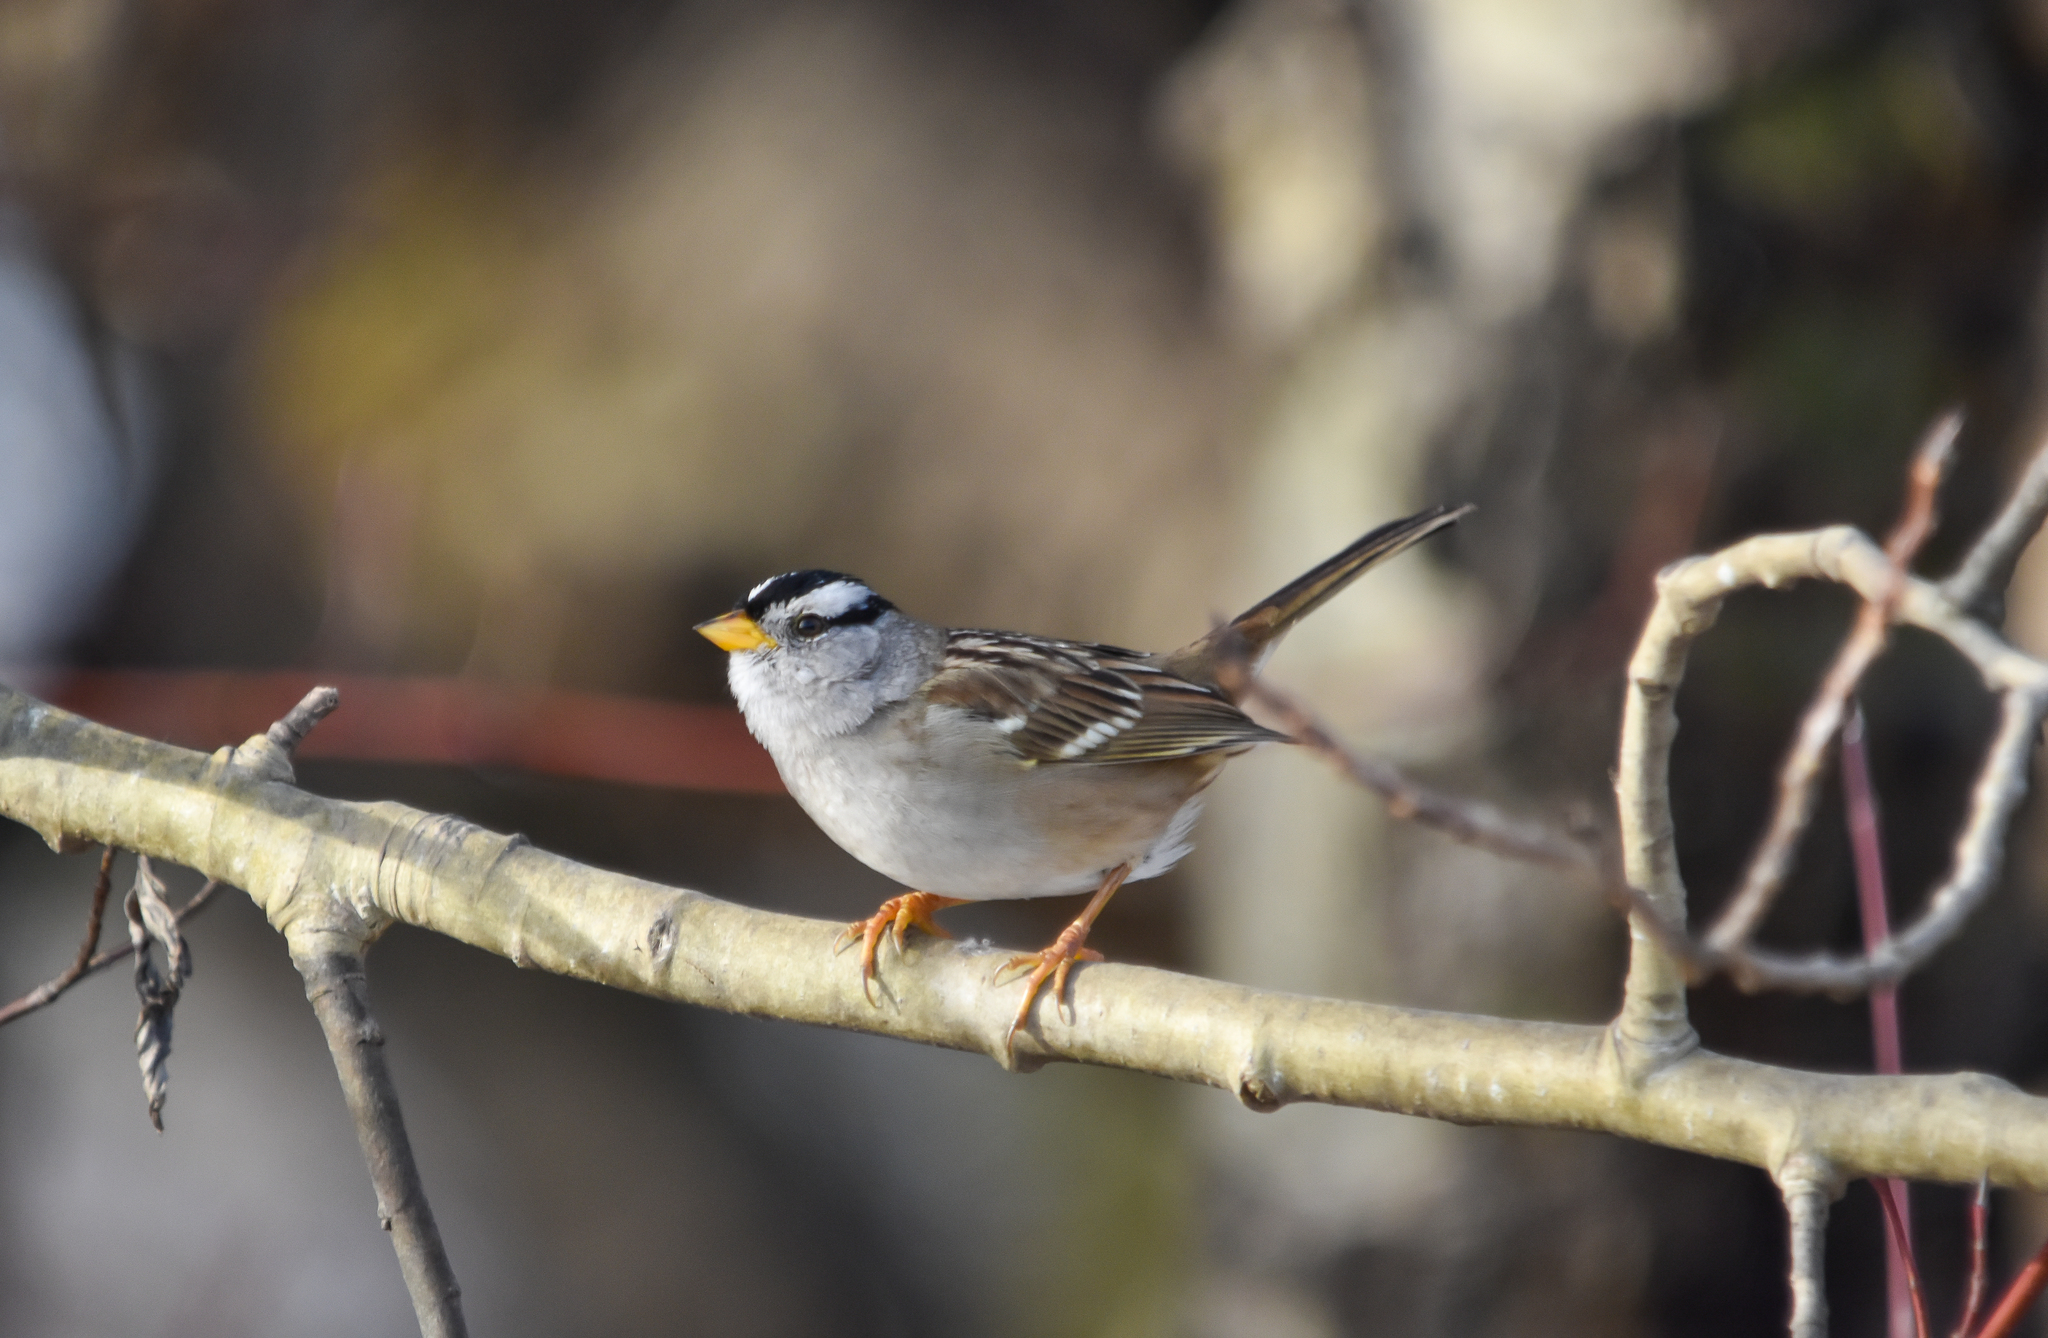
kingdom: Animalia
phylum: Chordata
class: Aves
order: Passeriformes
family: Passerellidae
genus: Zonotrichia
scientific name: Zonotrichia leucophrys
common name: White-crowned sparrow
